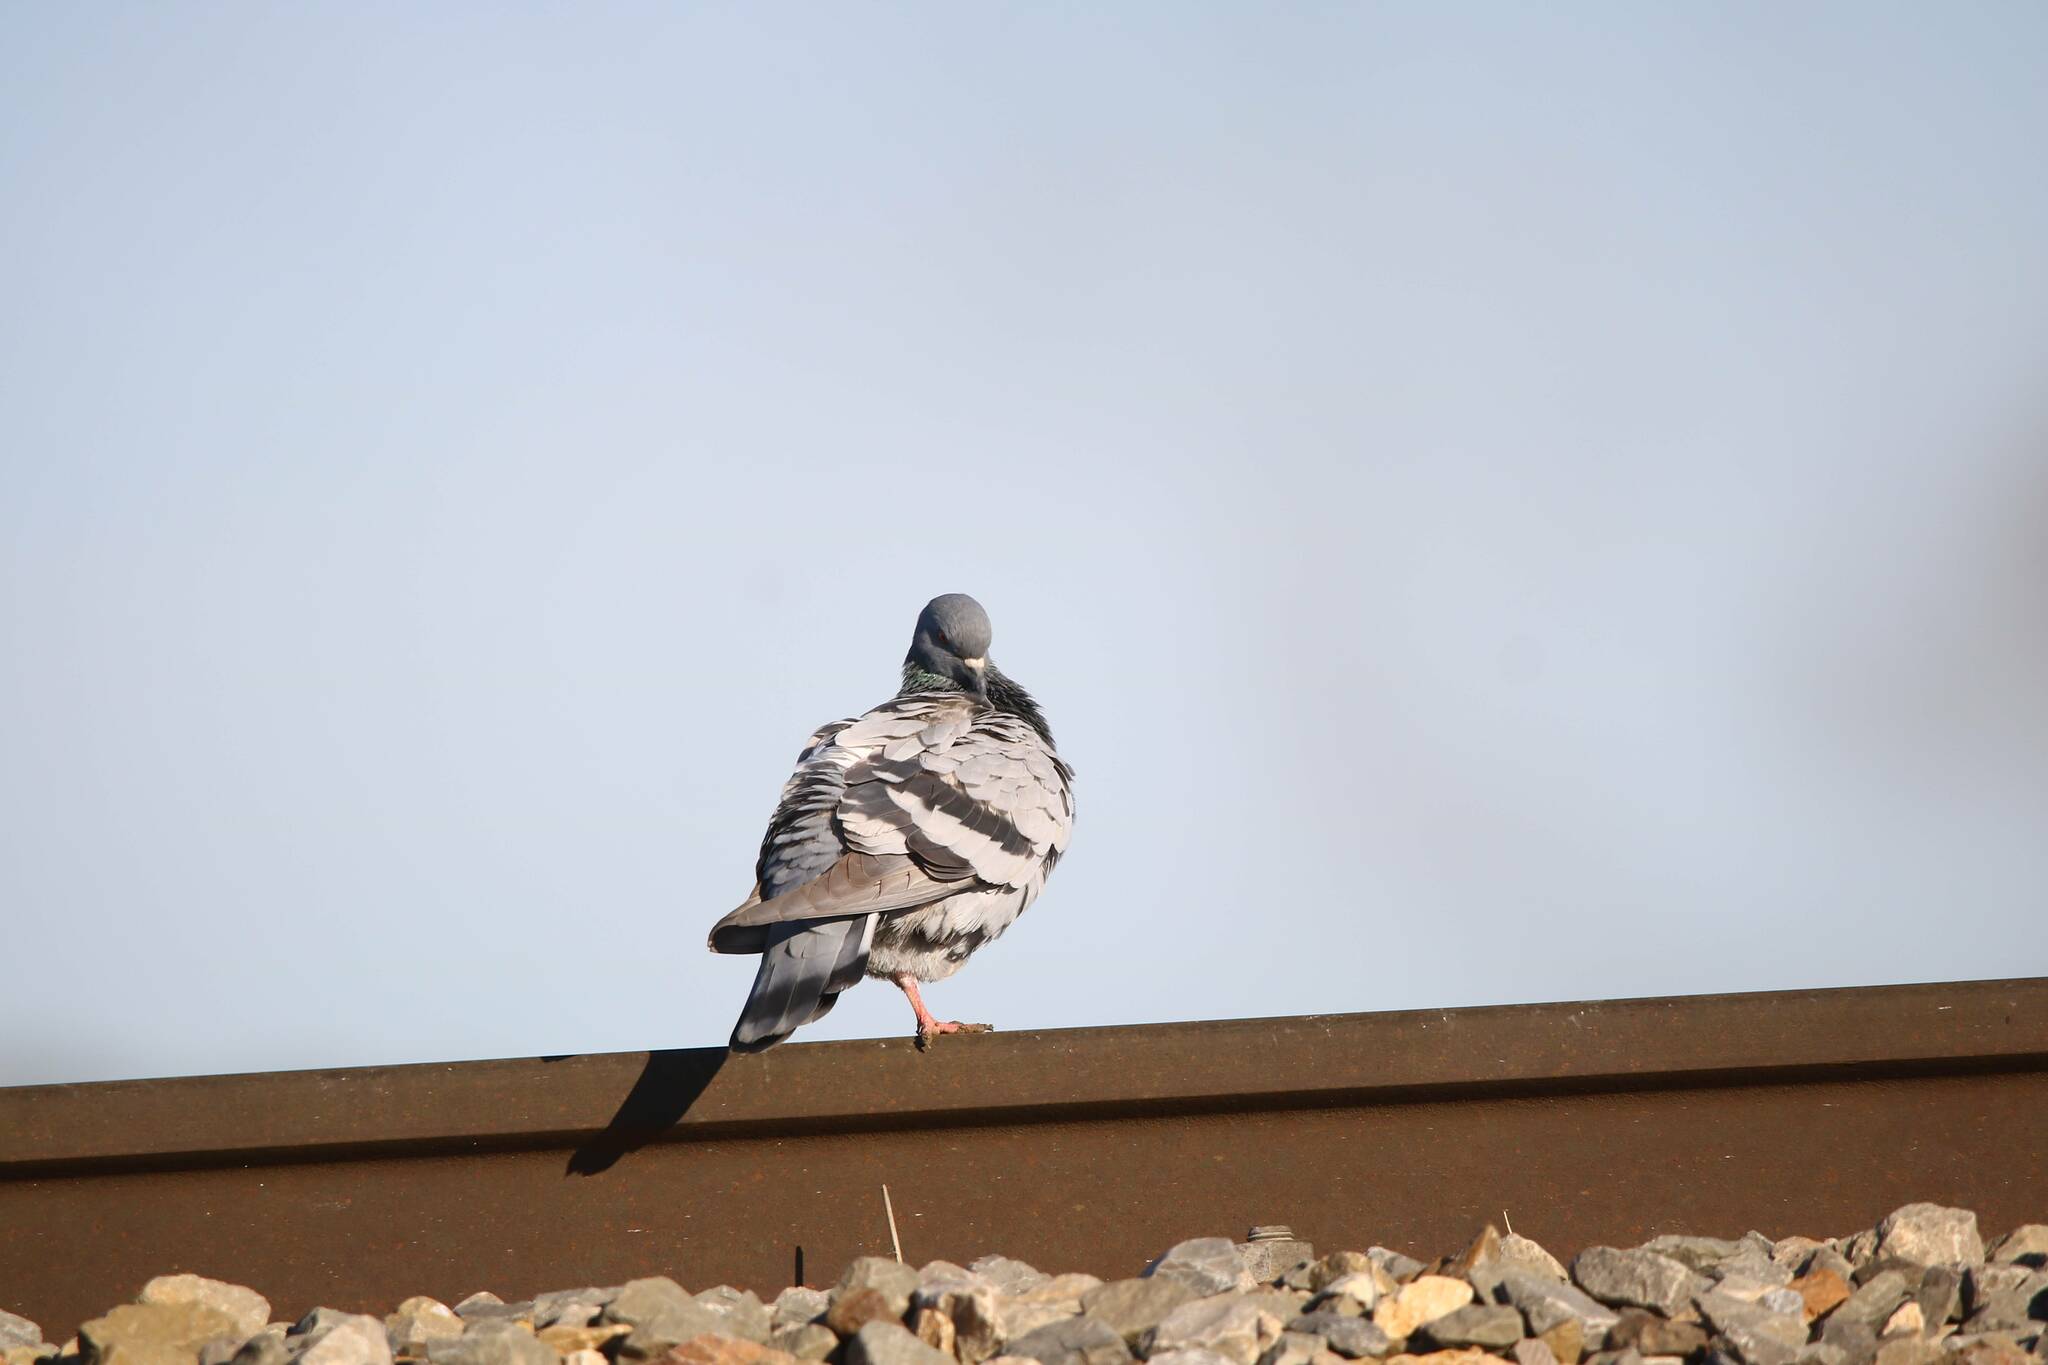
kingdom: Animalia
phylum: Chordata
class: Aves
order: Columbiformes
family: Columbidae
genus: Columba
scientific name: Columba livia
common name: Rock pigeon
